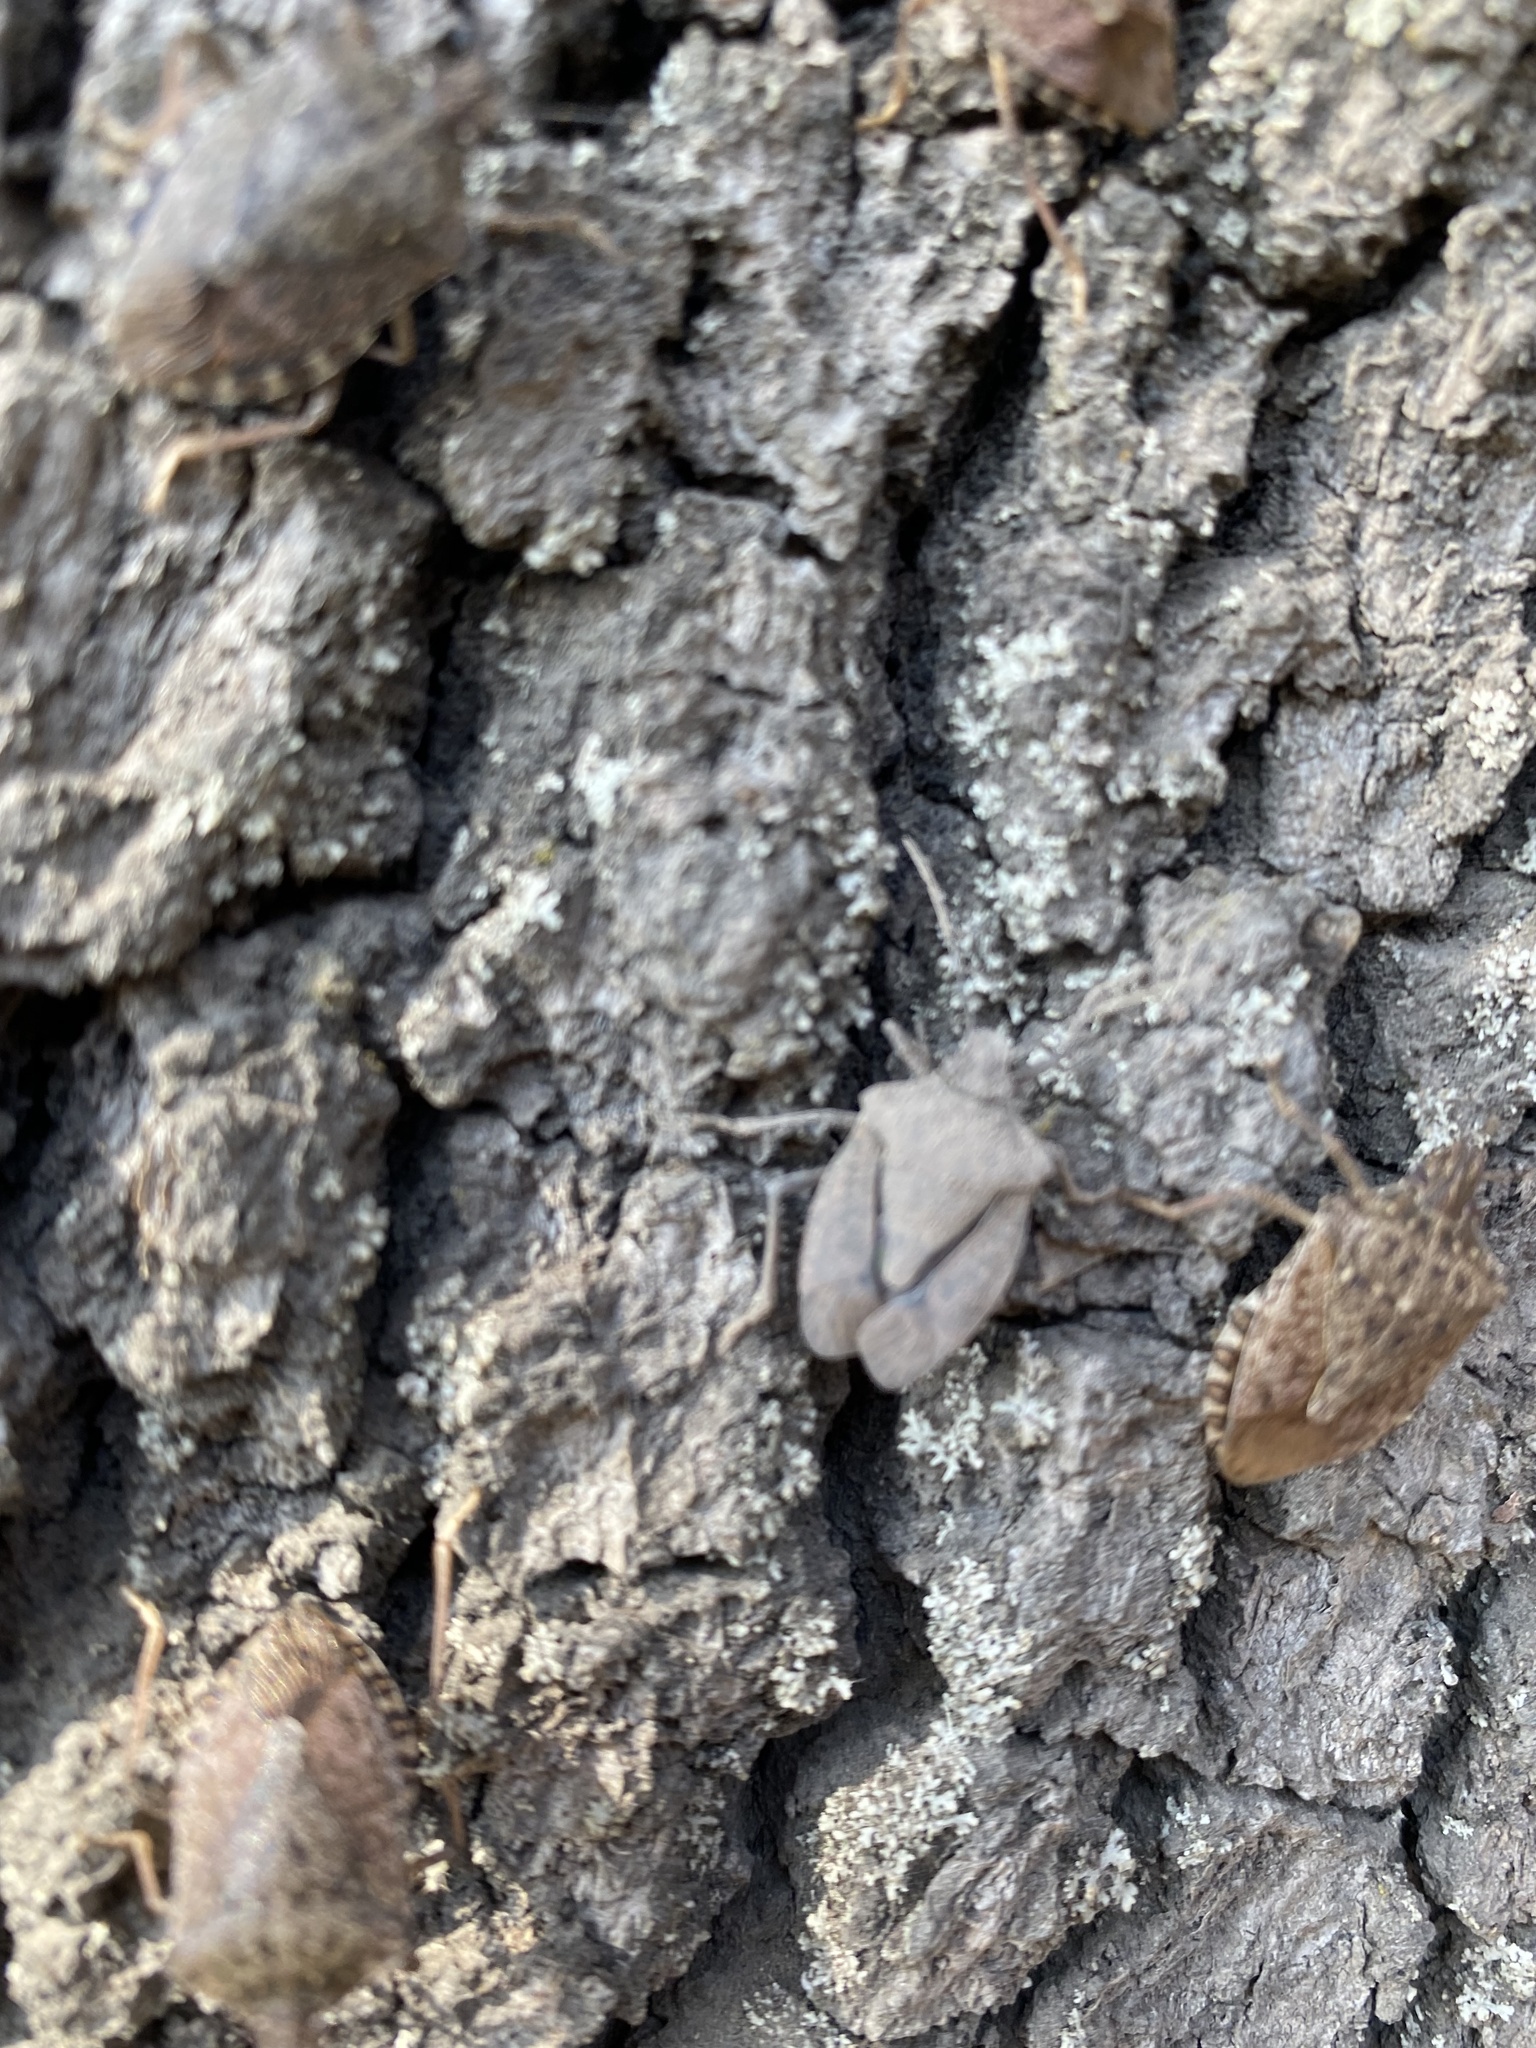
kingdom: Animalia
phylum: Arthropoda
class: Insecta
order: Hemiptera
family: Pentatomidae
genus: Halyomorpha
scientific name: Halyomorpha halys
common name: Brown marmorated stink bug
